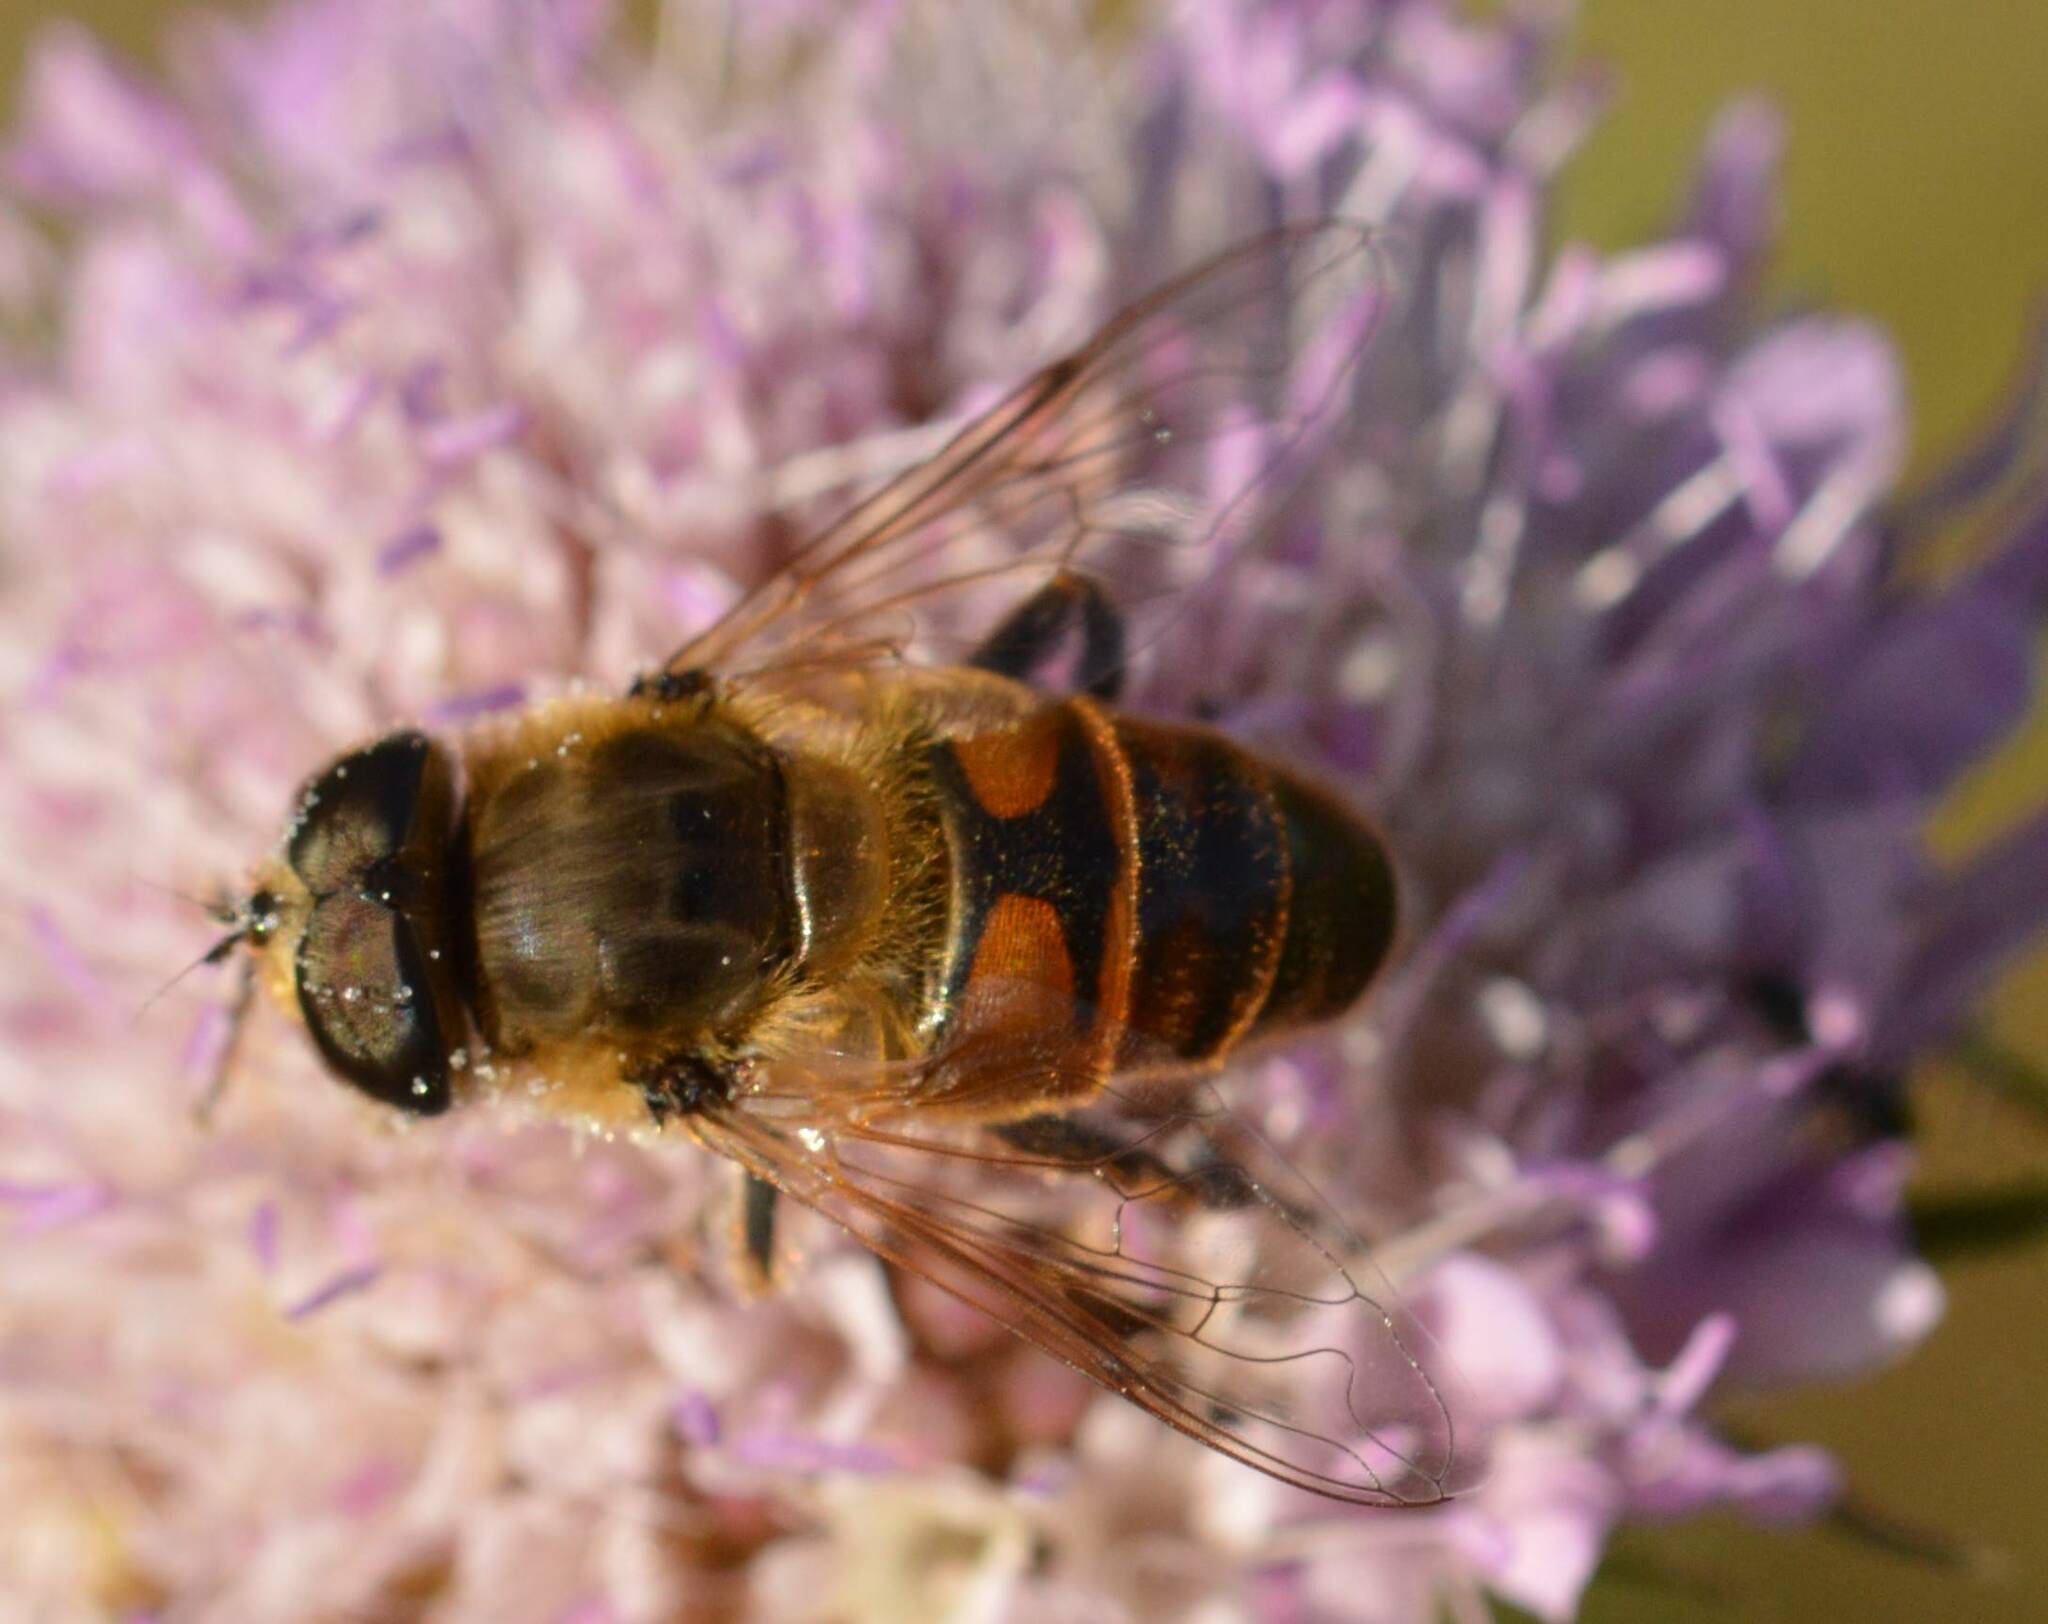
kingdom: Animalia
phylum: Arthropoda
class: Insecta
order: Diptera
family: Syrphidae
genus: Eristalis
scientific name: Eristalis tenax
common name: Drone fly
